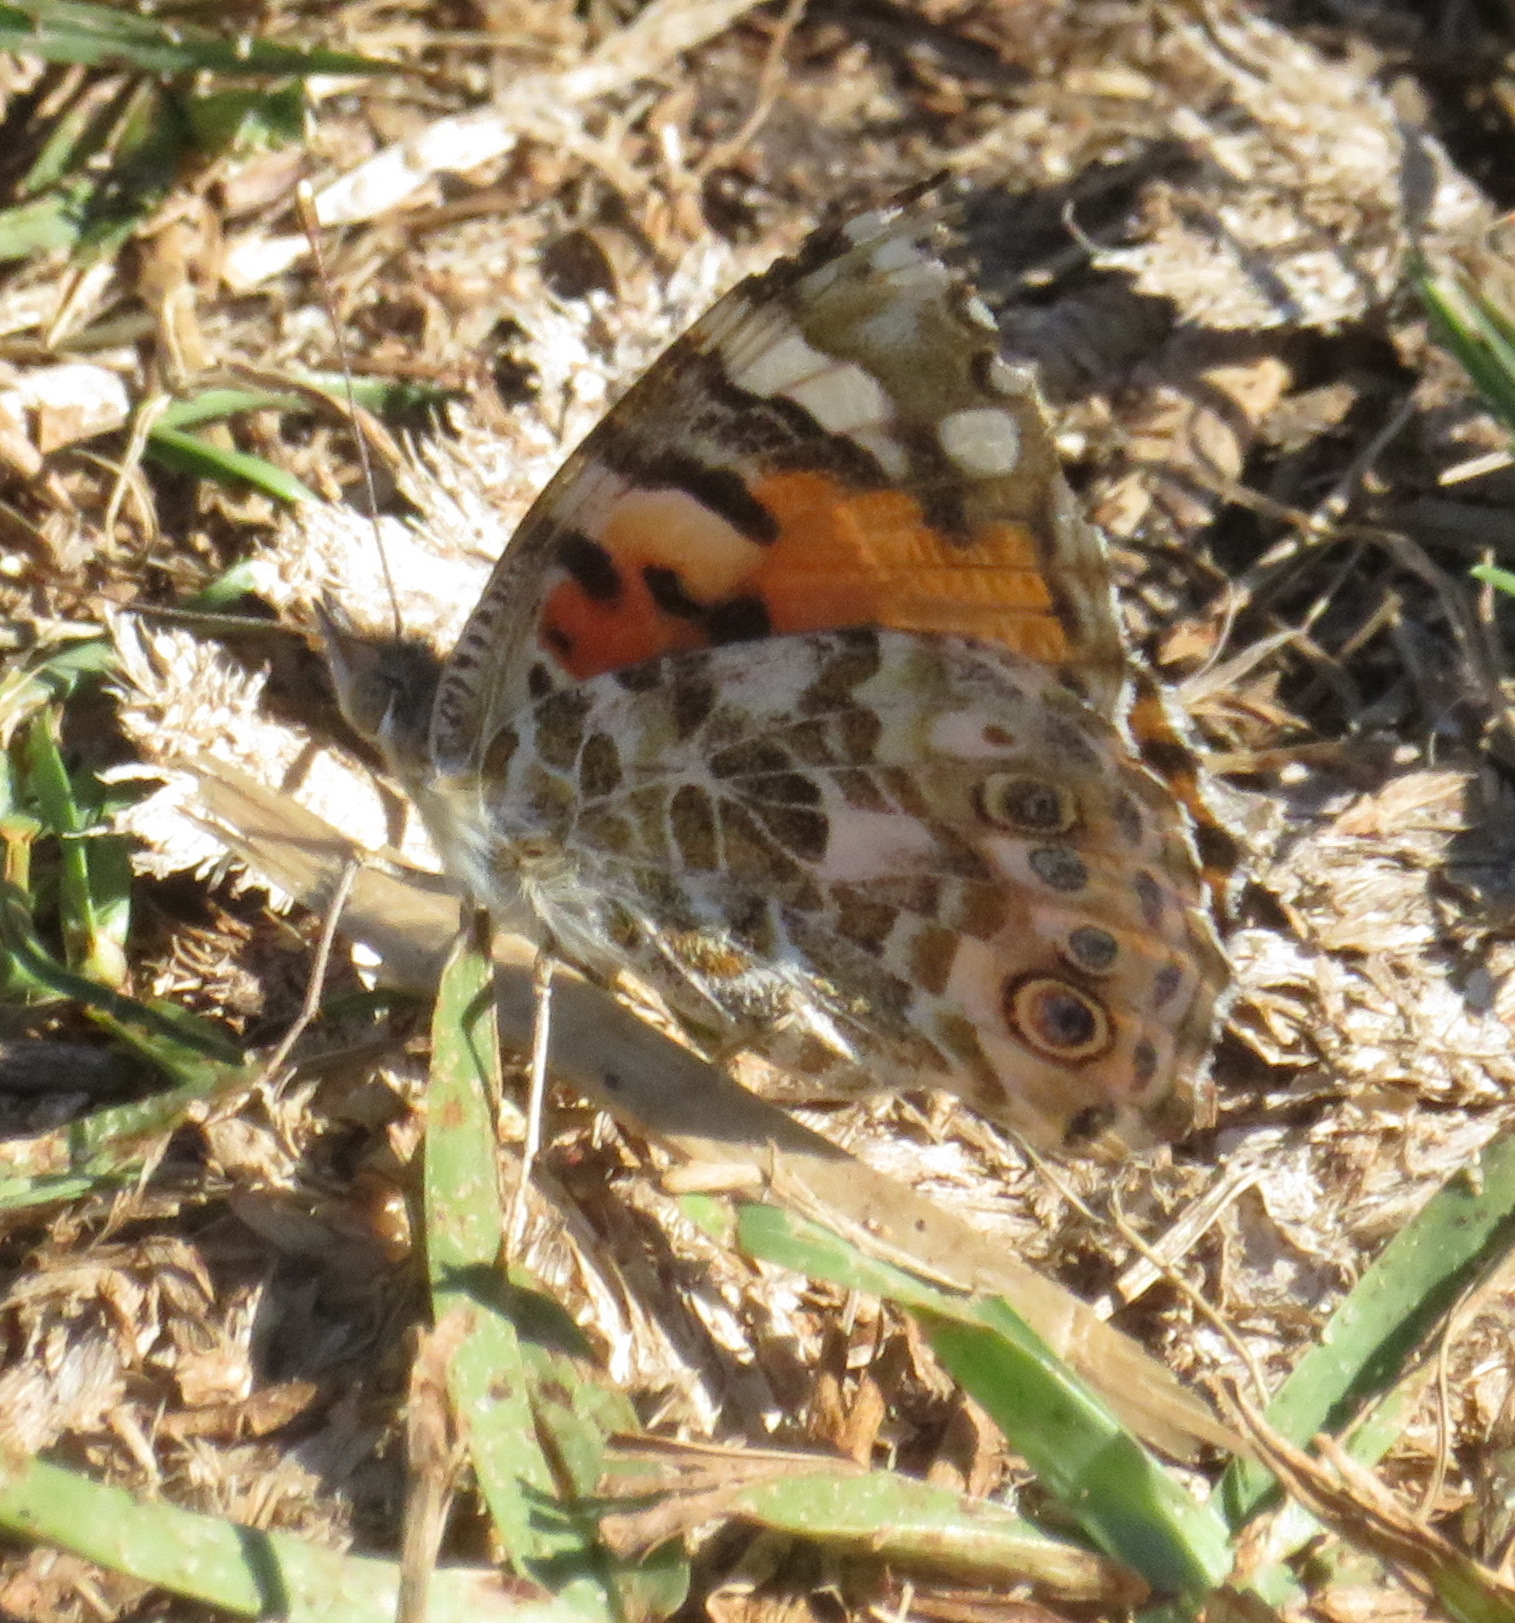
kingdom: Animalia
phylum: Arthropoda
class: Insecta
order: Lepidoptera
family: Nymphalidae
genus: Vanessa
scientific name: Vanessa cardui
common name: Painted lady
